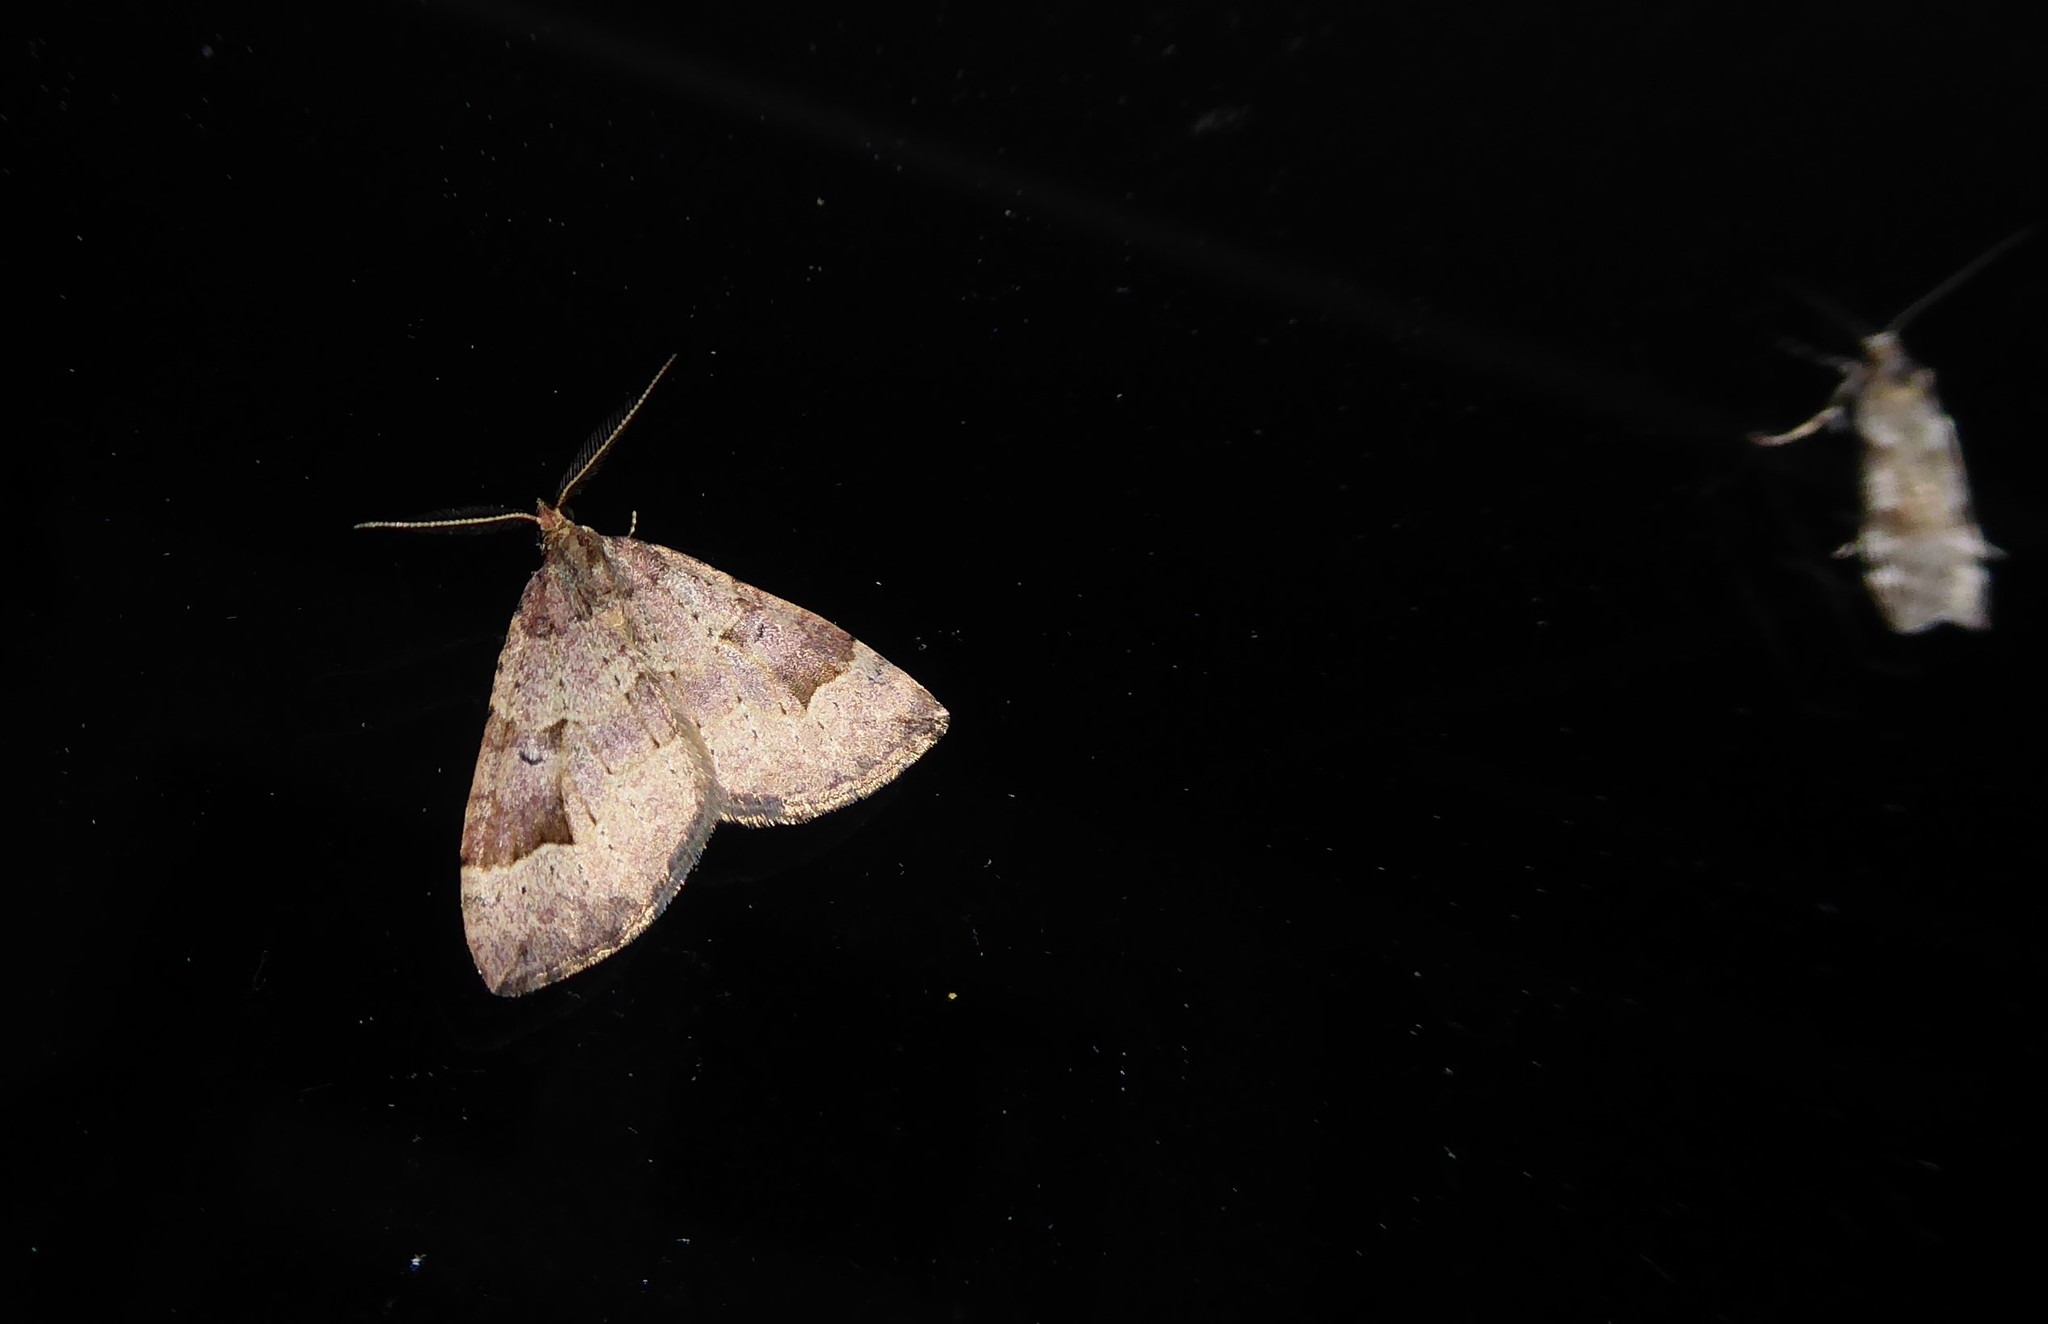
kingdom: Animalia
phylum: Arthropoda
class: Insecta
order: Lepidoptera
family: Geometridae
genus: Epyaxa
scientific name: Epyaxa rosearia
